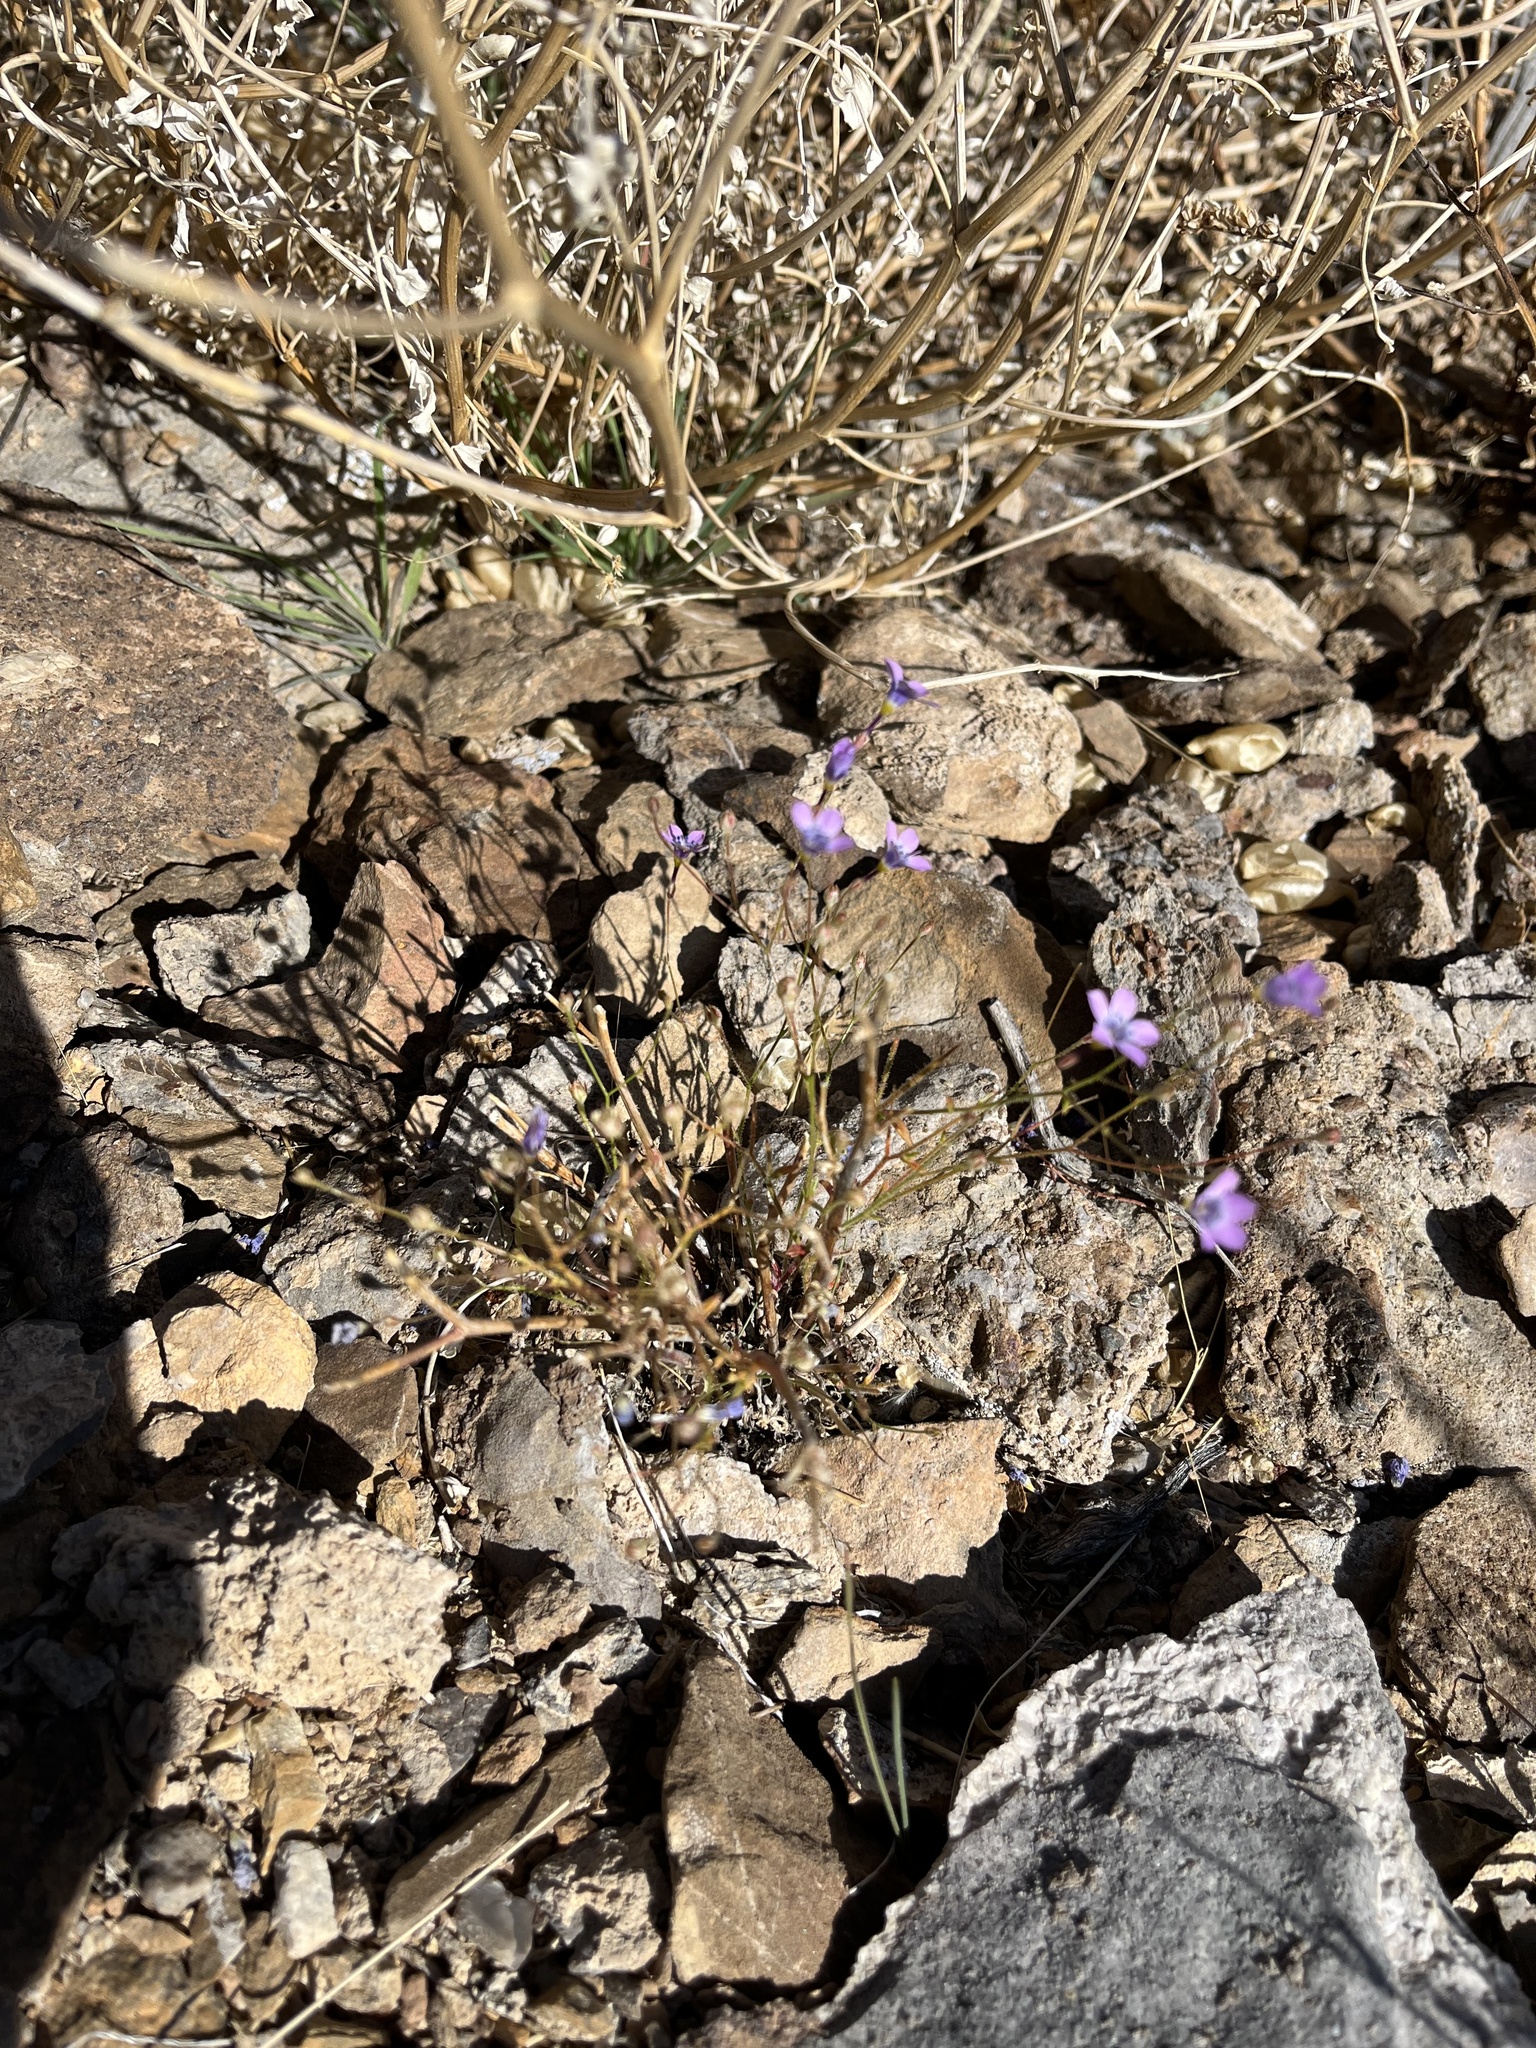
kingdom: Plantae
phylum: Tracheophyta
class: Magnoliopsida
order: Ericales
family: Polemoniaceae
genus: Gilia
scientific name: Gilia cana
